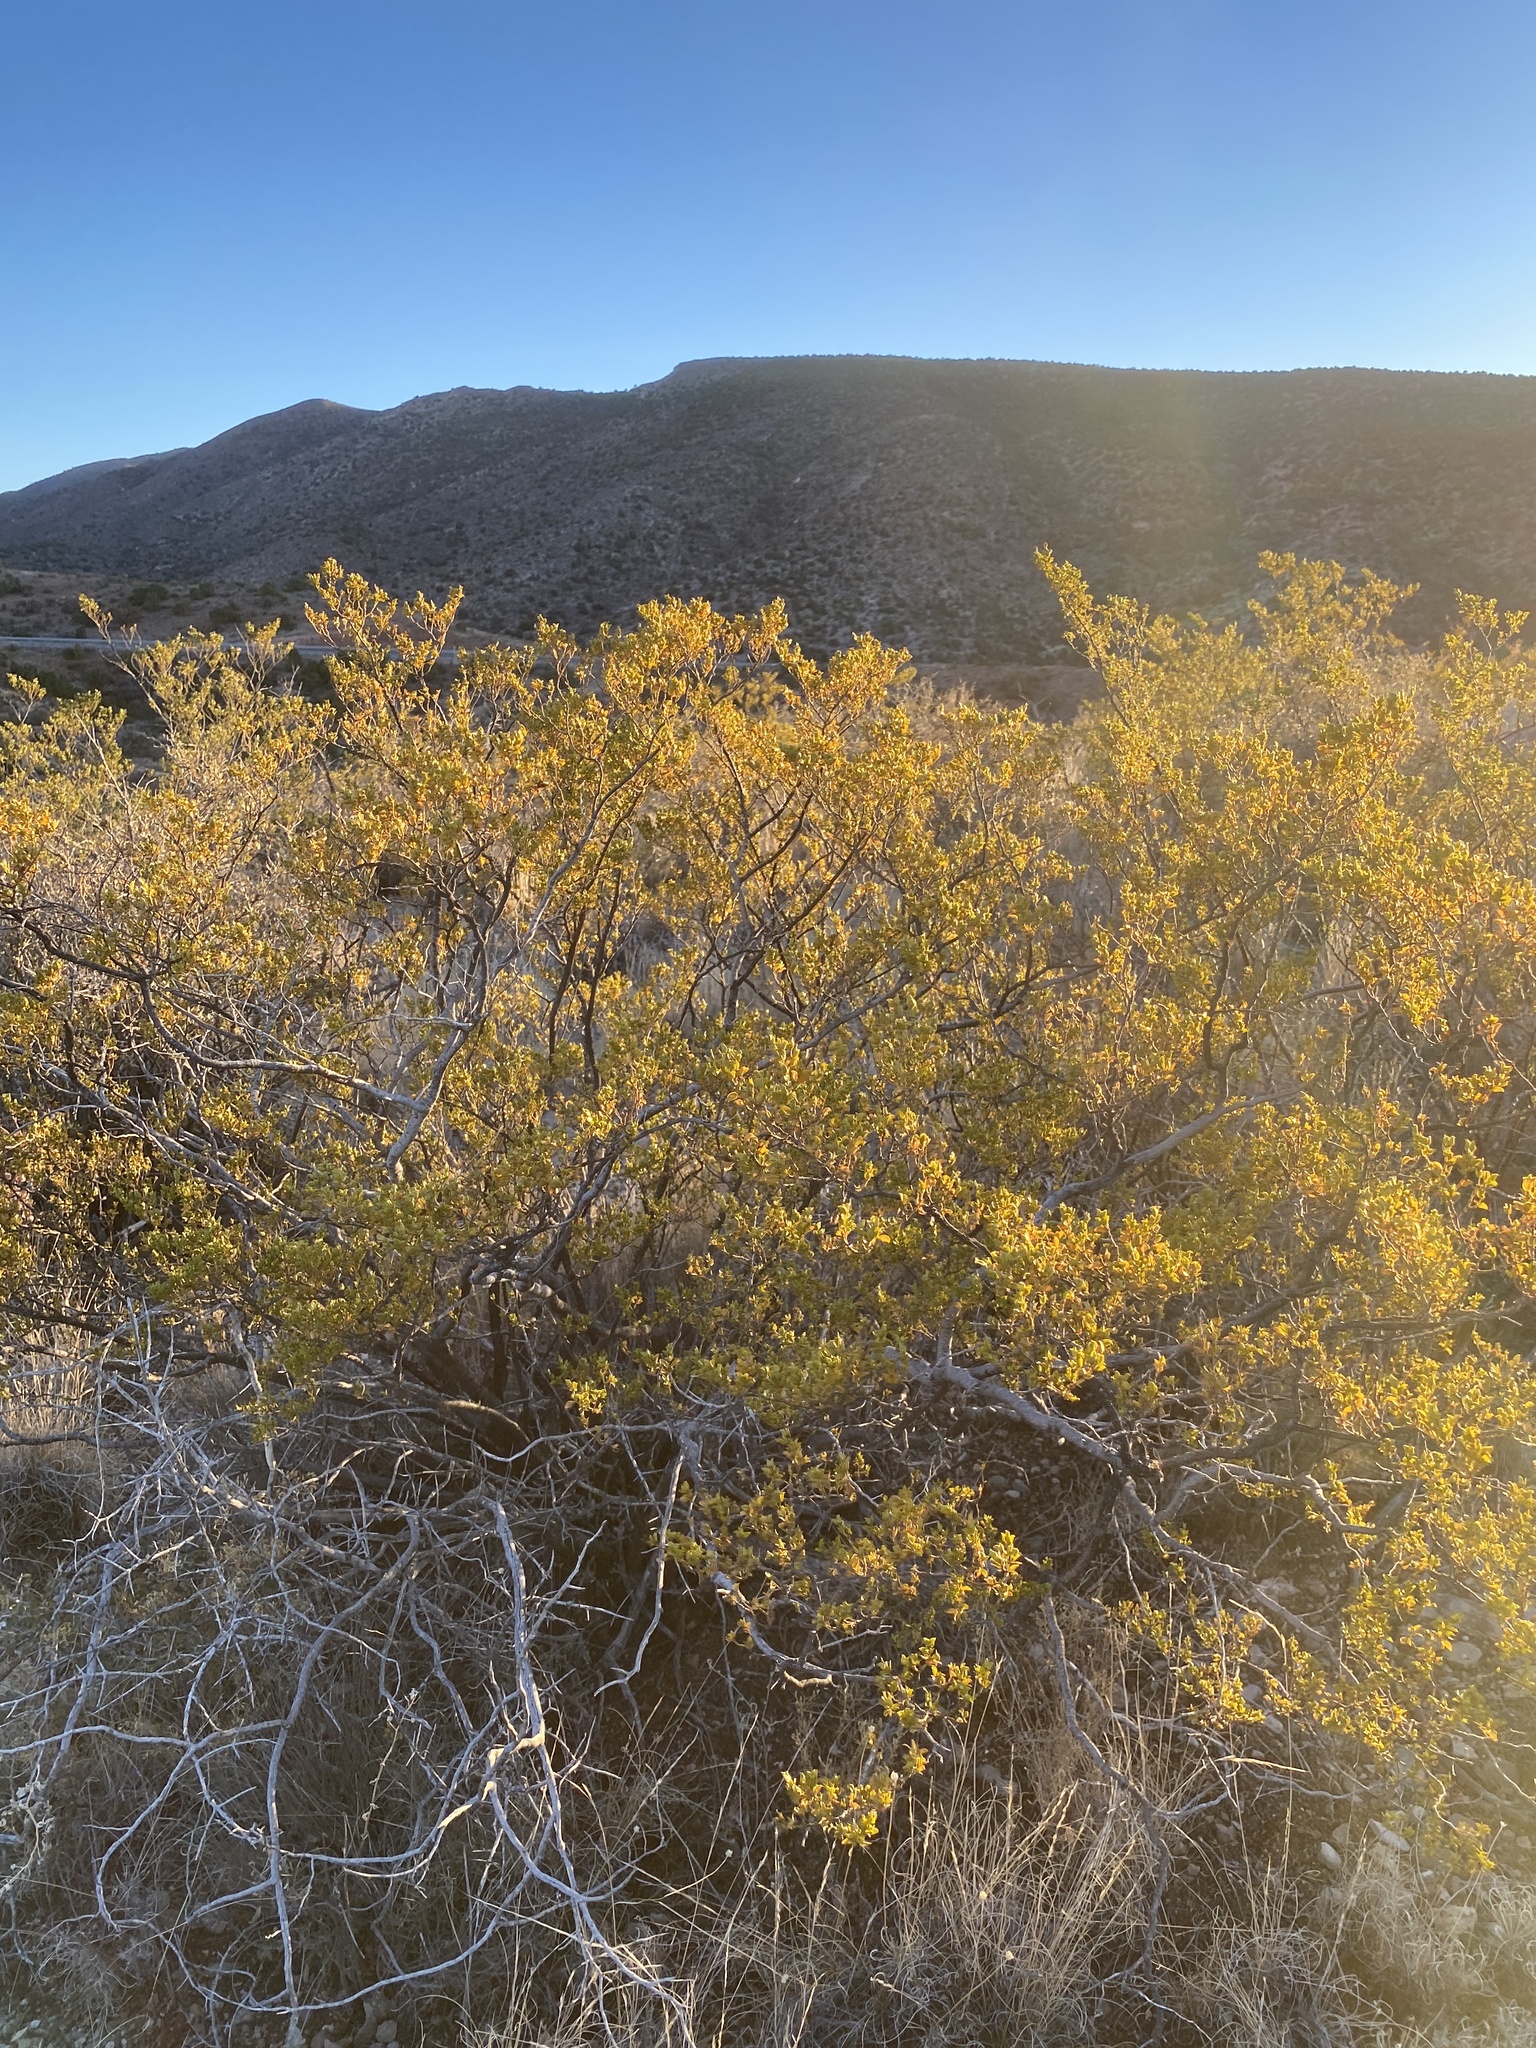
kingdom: Plantae
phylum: Tracheophyta
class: Magnoliopsida
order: Zygophyllales
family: Zygophyllaceae
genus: Larrea
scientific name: Larrea tridentata
